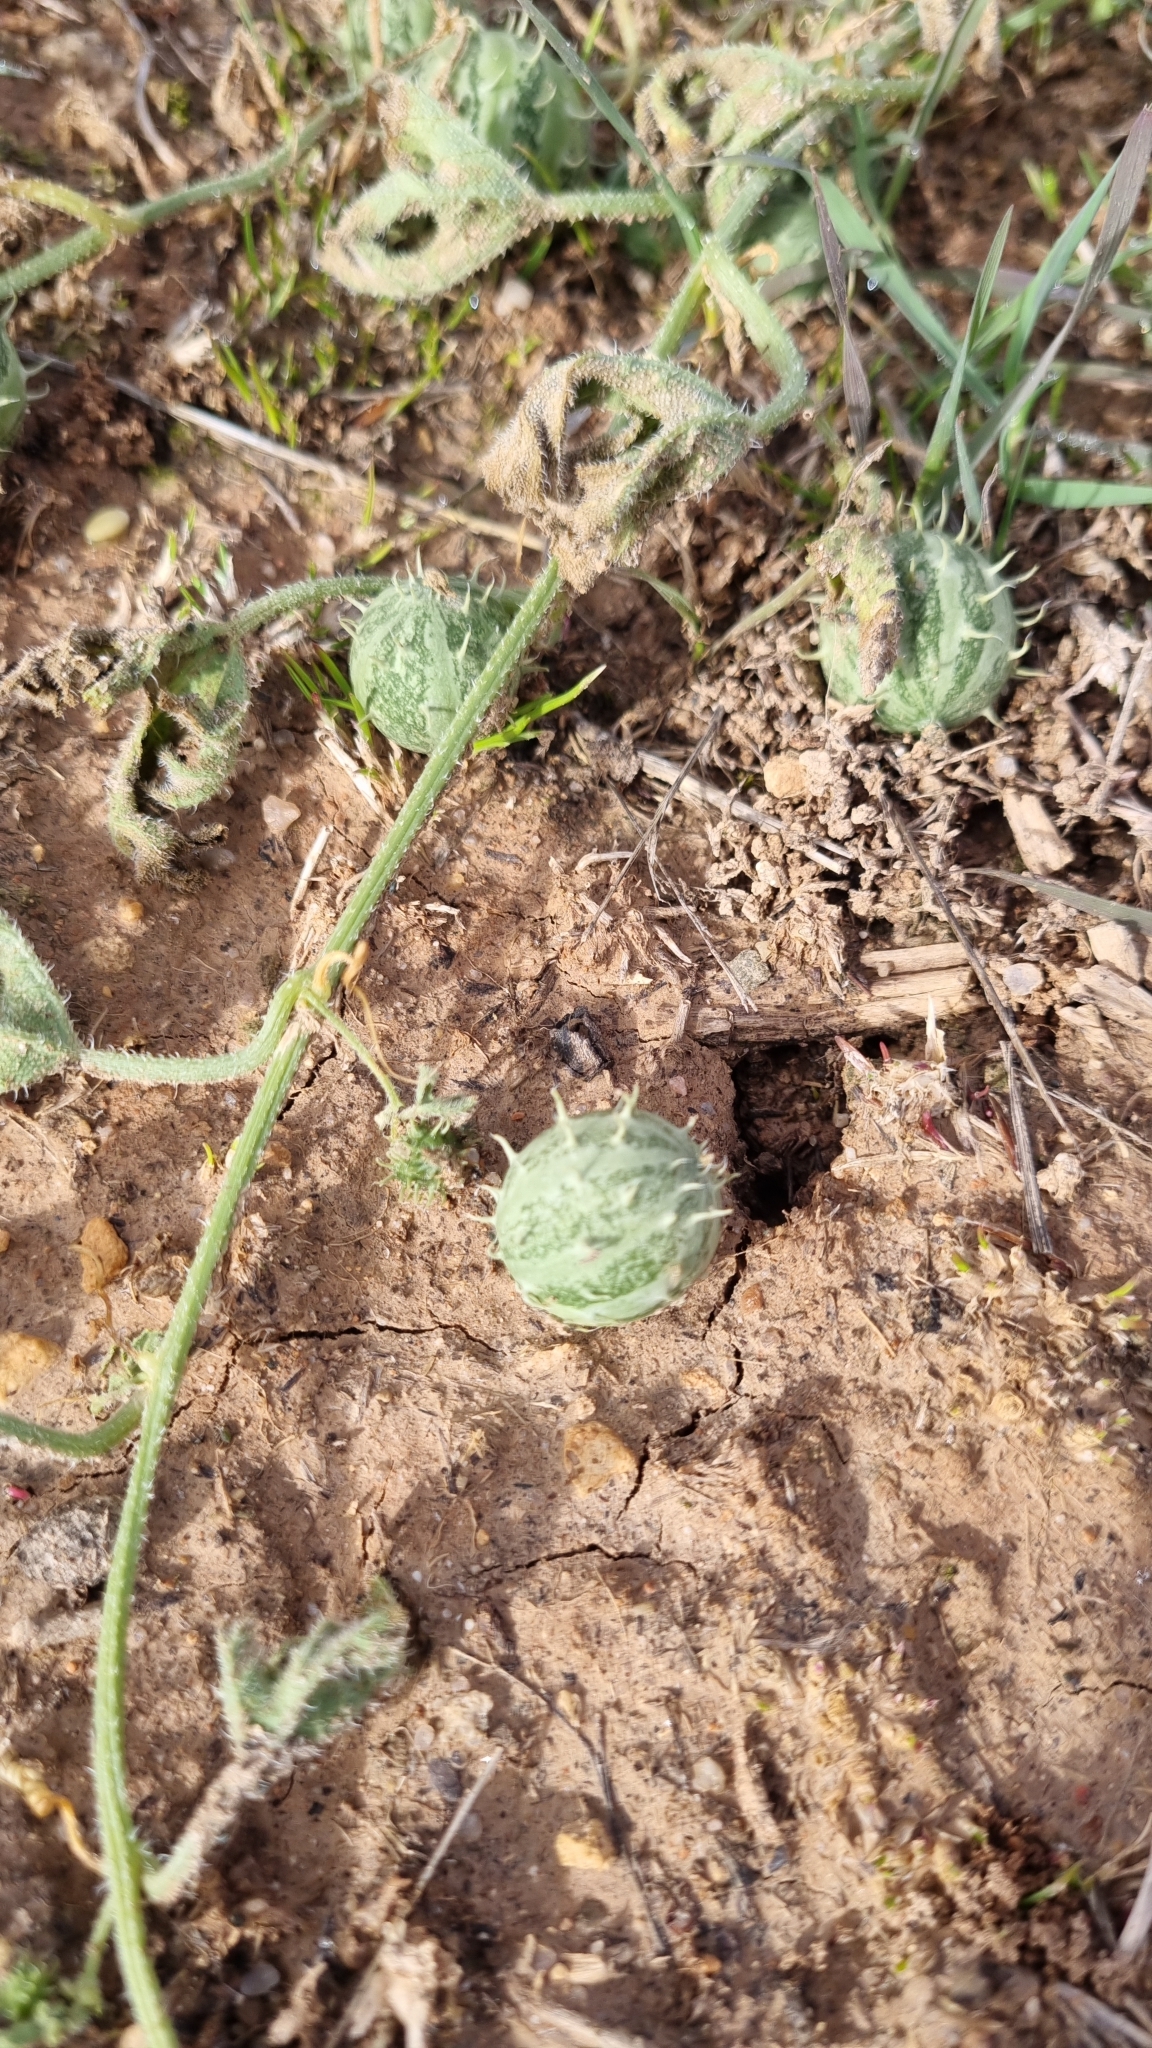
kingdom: Plantae
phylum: Tracheophyta
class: Magnoliopsida
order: Cucurbitales
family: Cucurbitaceae
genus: Cucumis
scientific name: Cucumis myriocarpus
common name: Gooseberry cucumber
